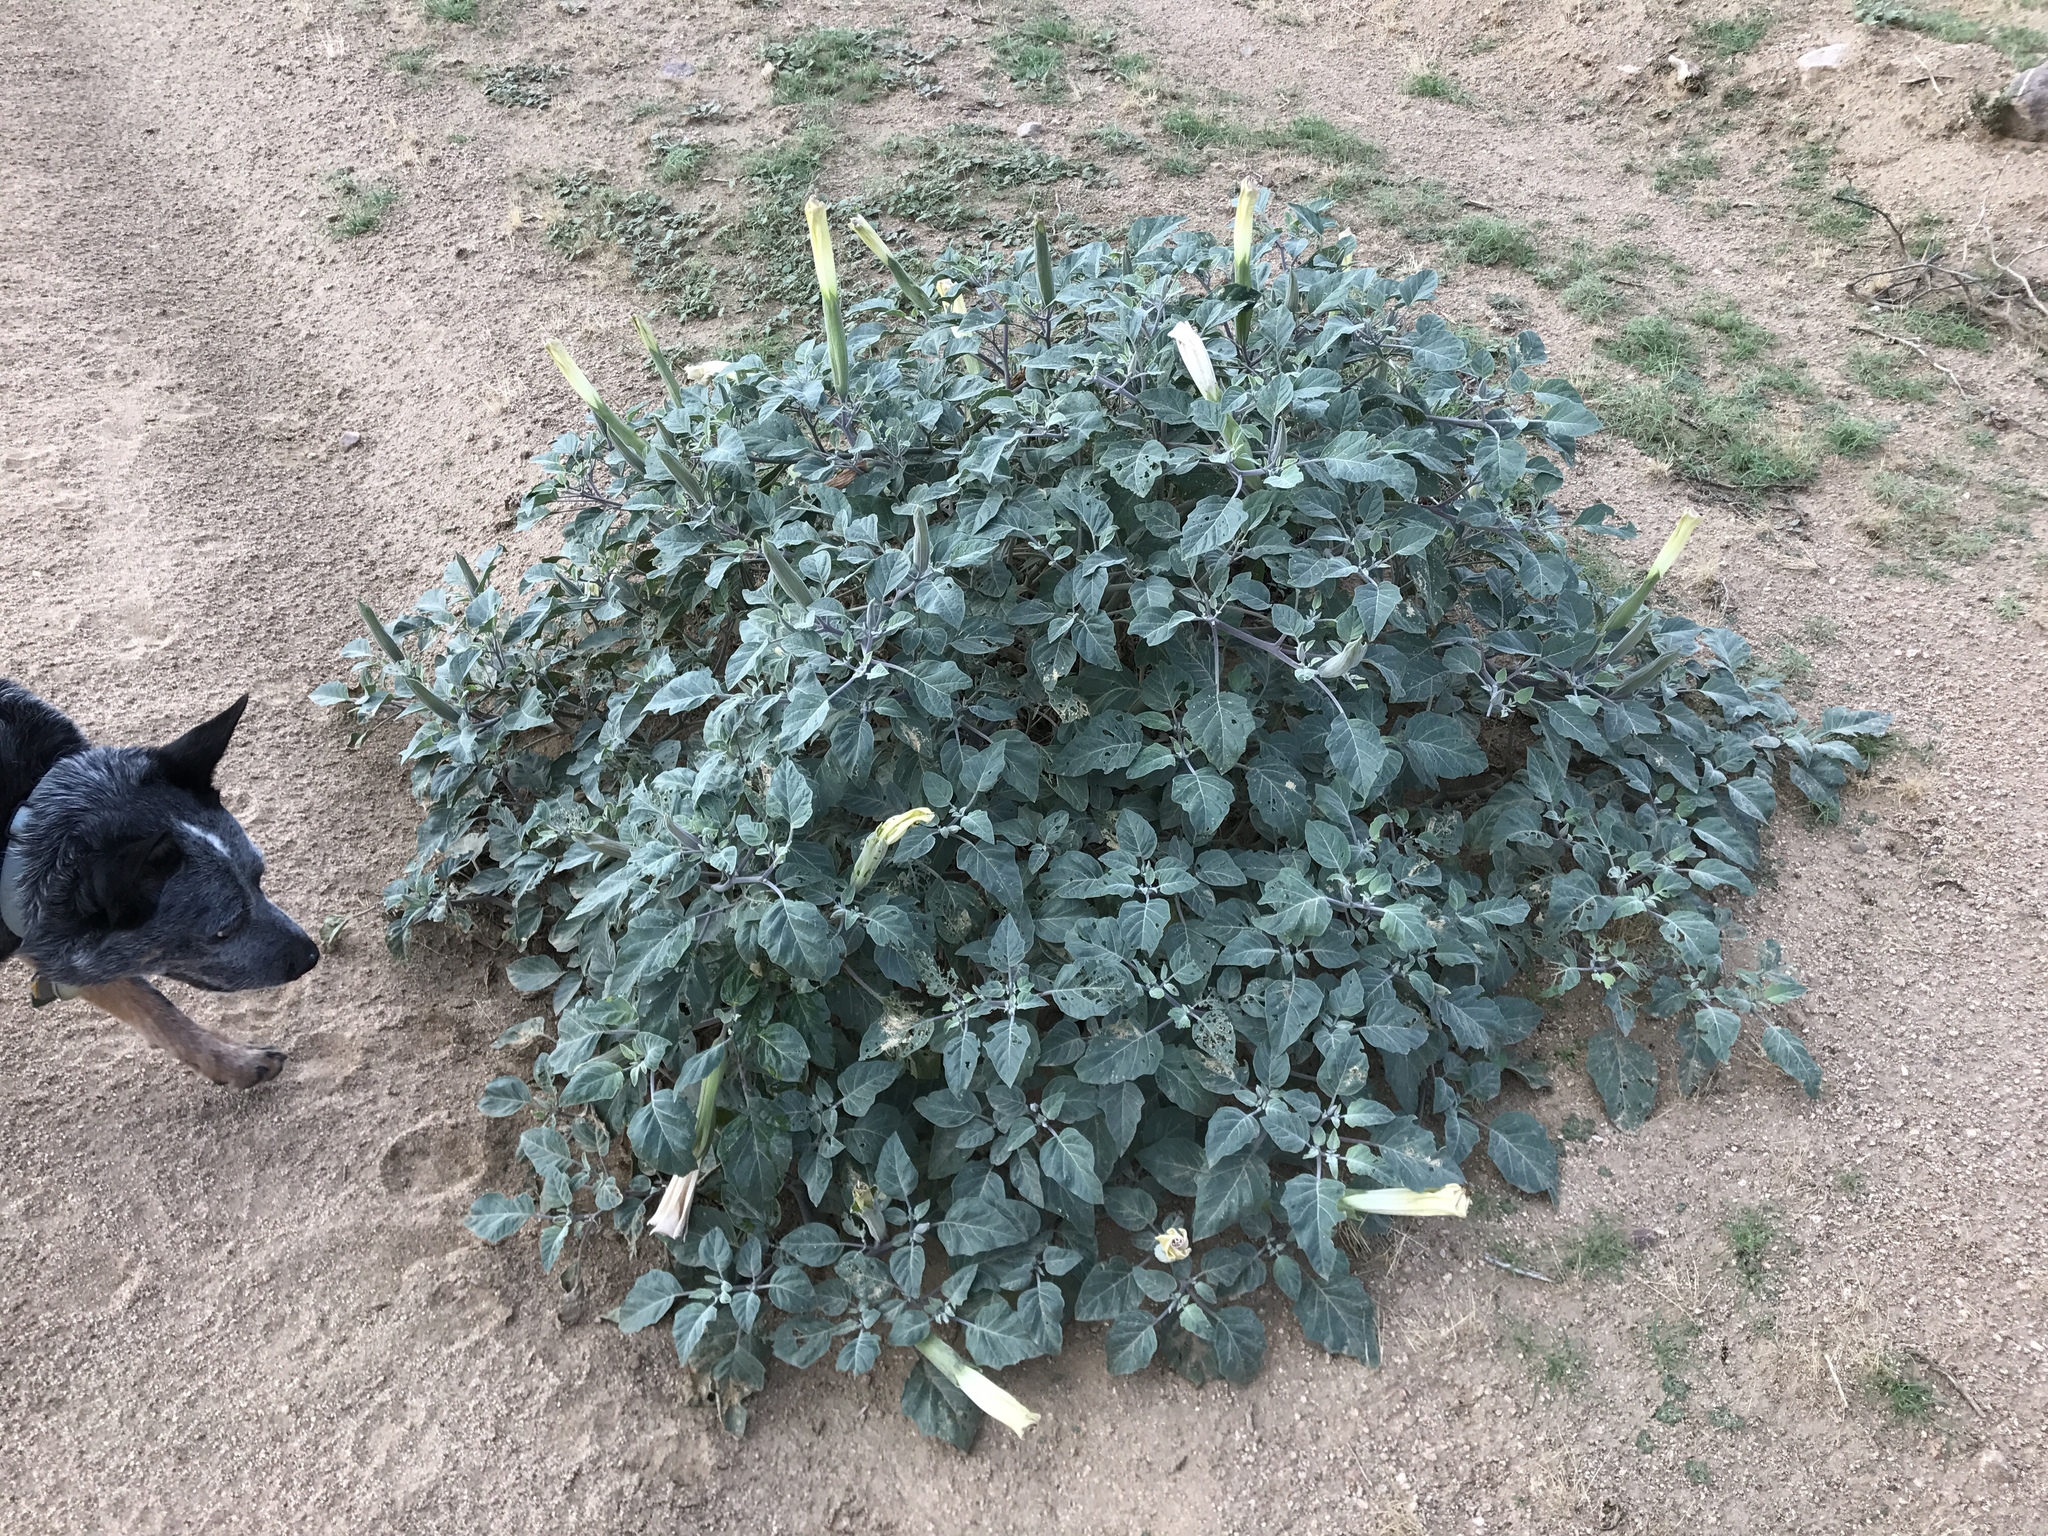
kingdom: Plantae
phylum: Tracheophyta
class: Magnoliopsida
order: Solanales
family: Solanaceae
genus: Datura
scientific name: Datura wrightii
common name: Sacred thorn-apple
